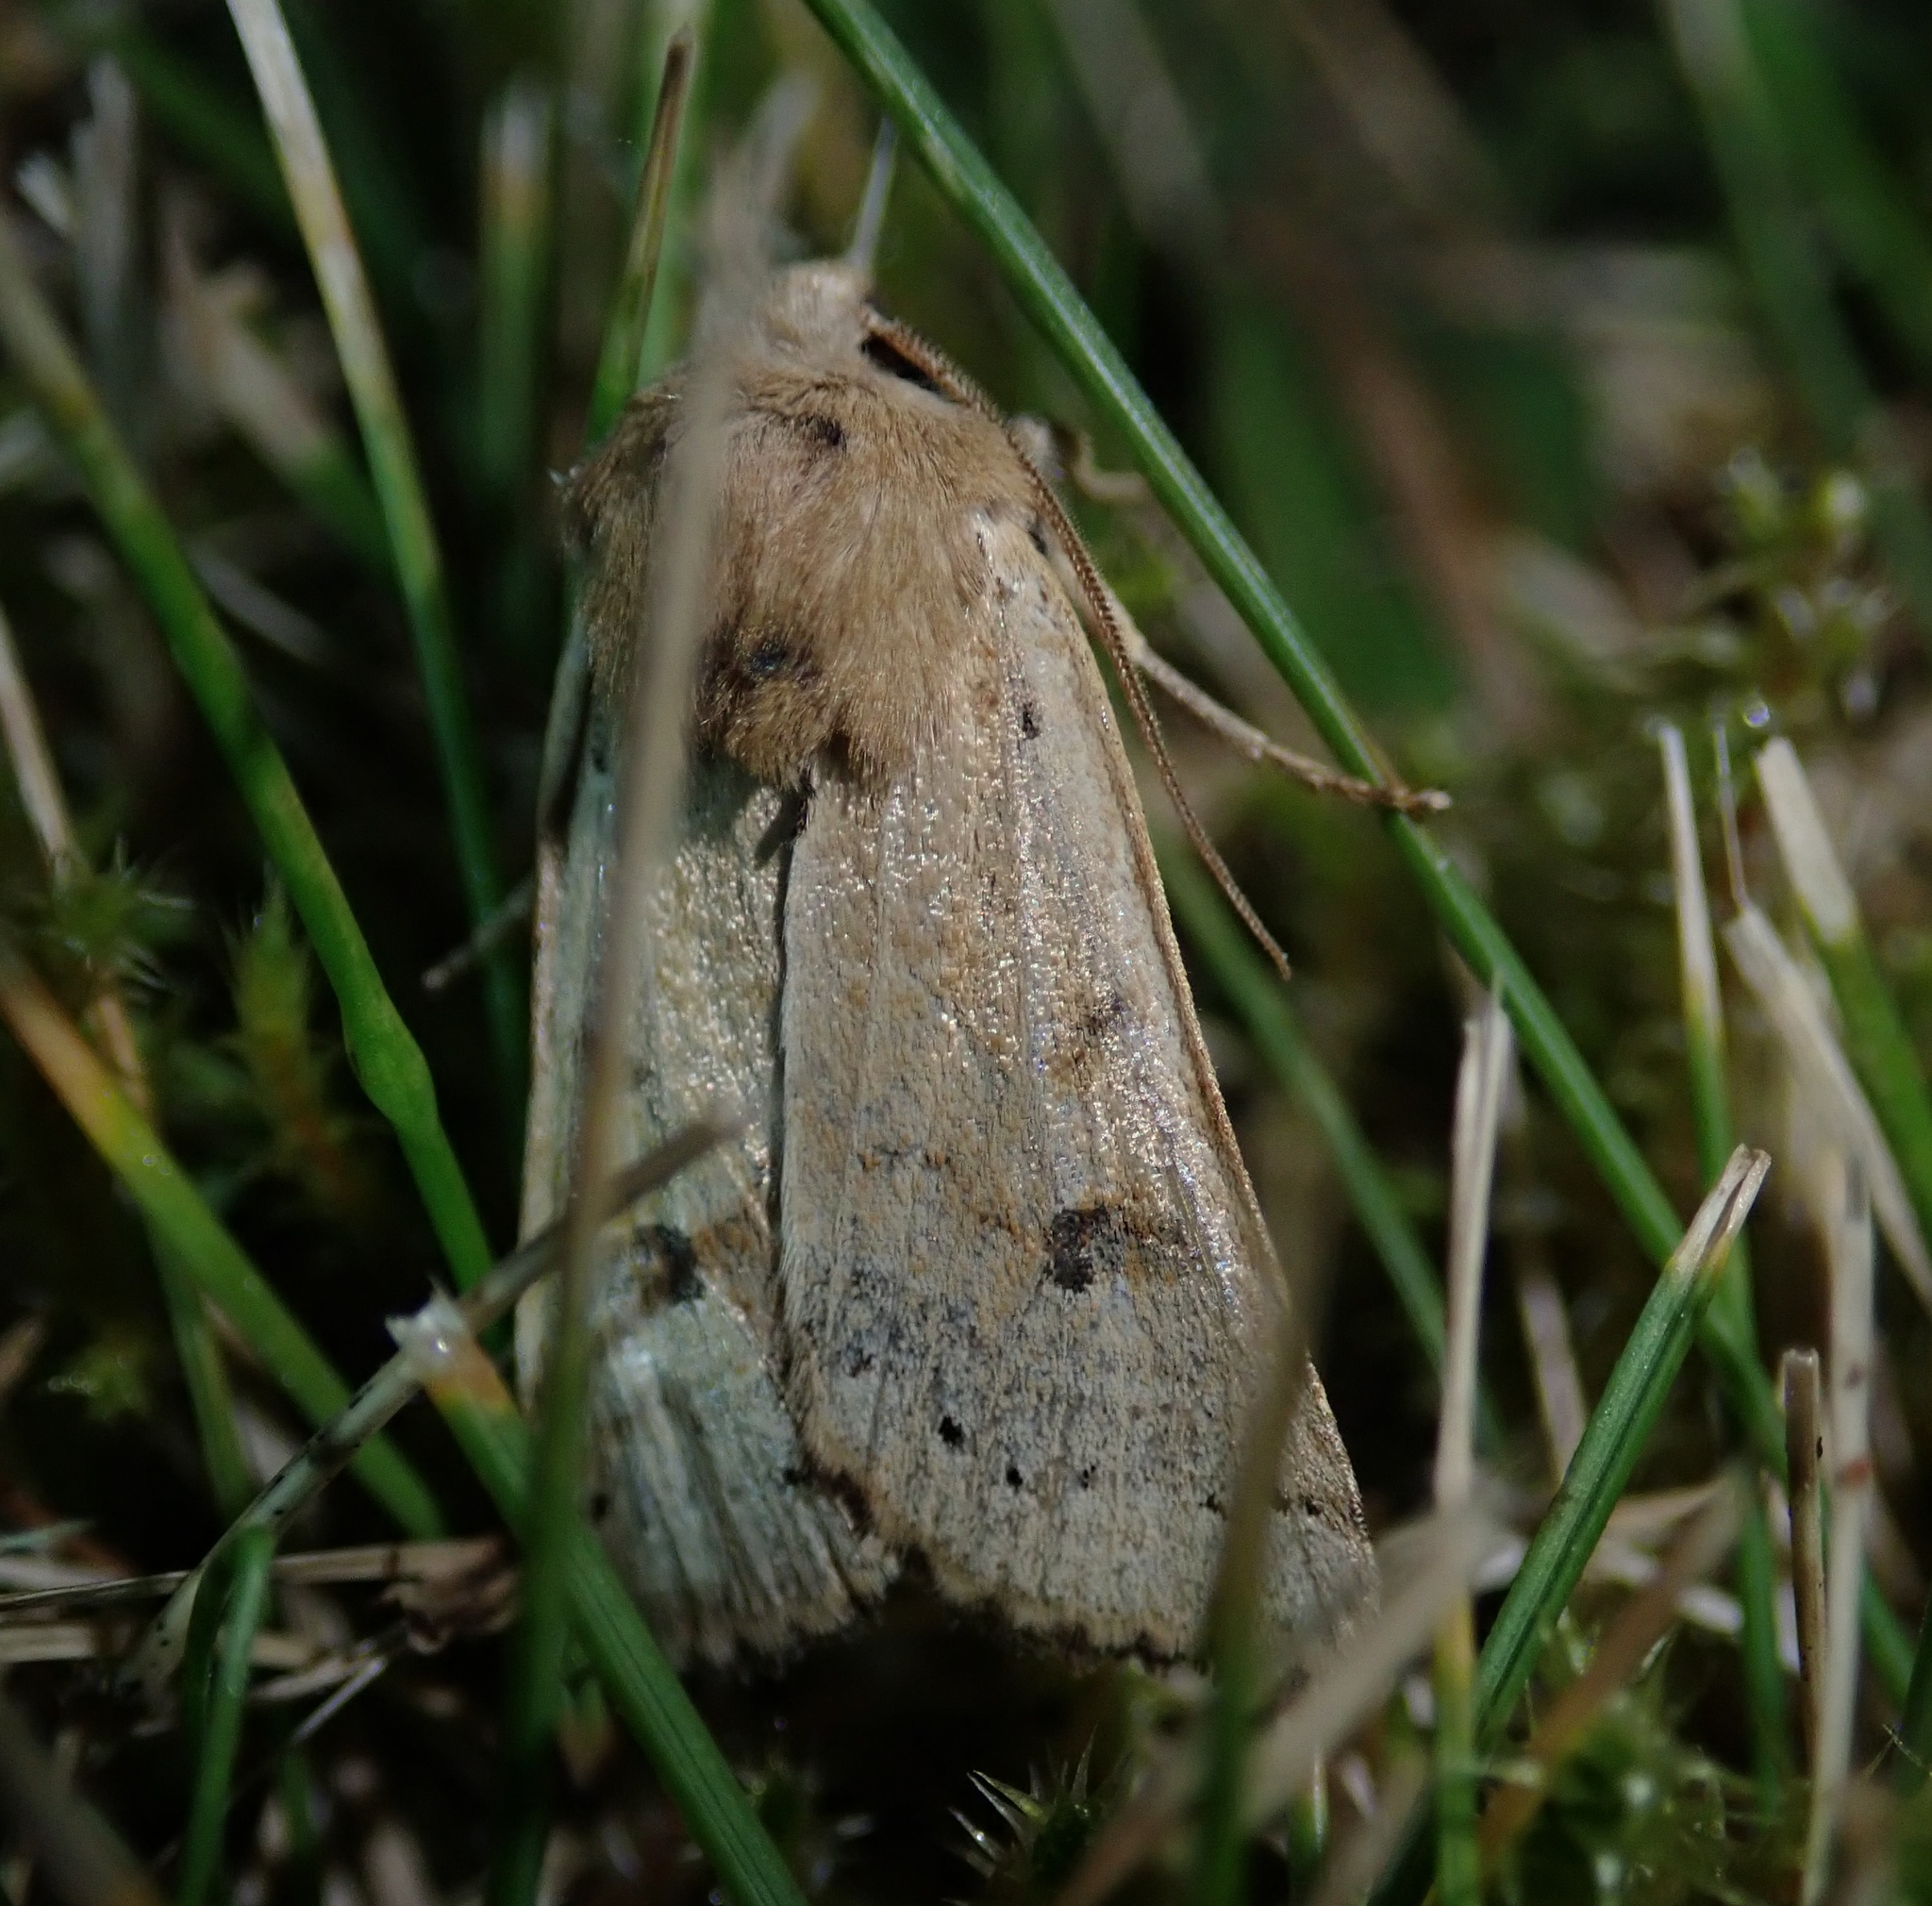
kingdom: Animalia
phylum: Arthropoda
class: Insecta
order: Lepidoptera
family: Noctuidae
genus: Agrochola
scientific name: Agrochola lunosa
